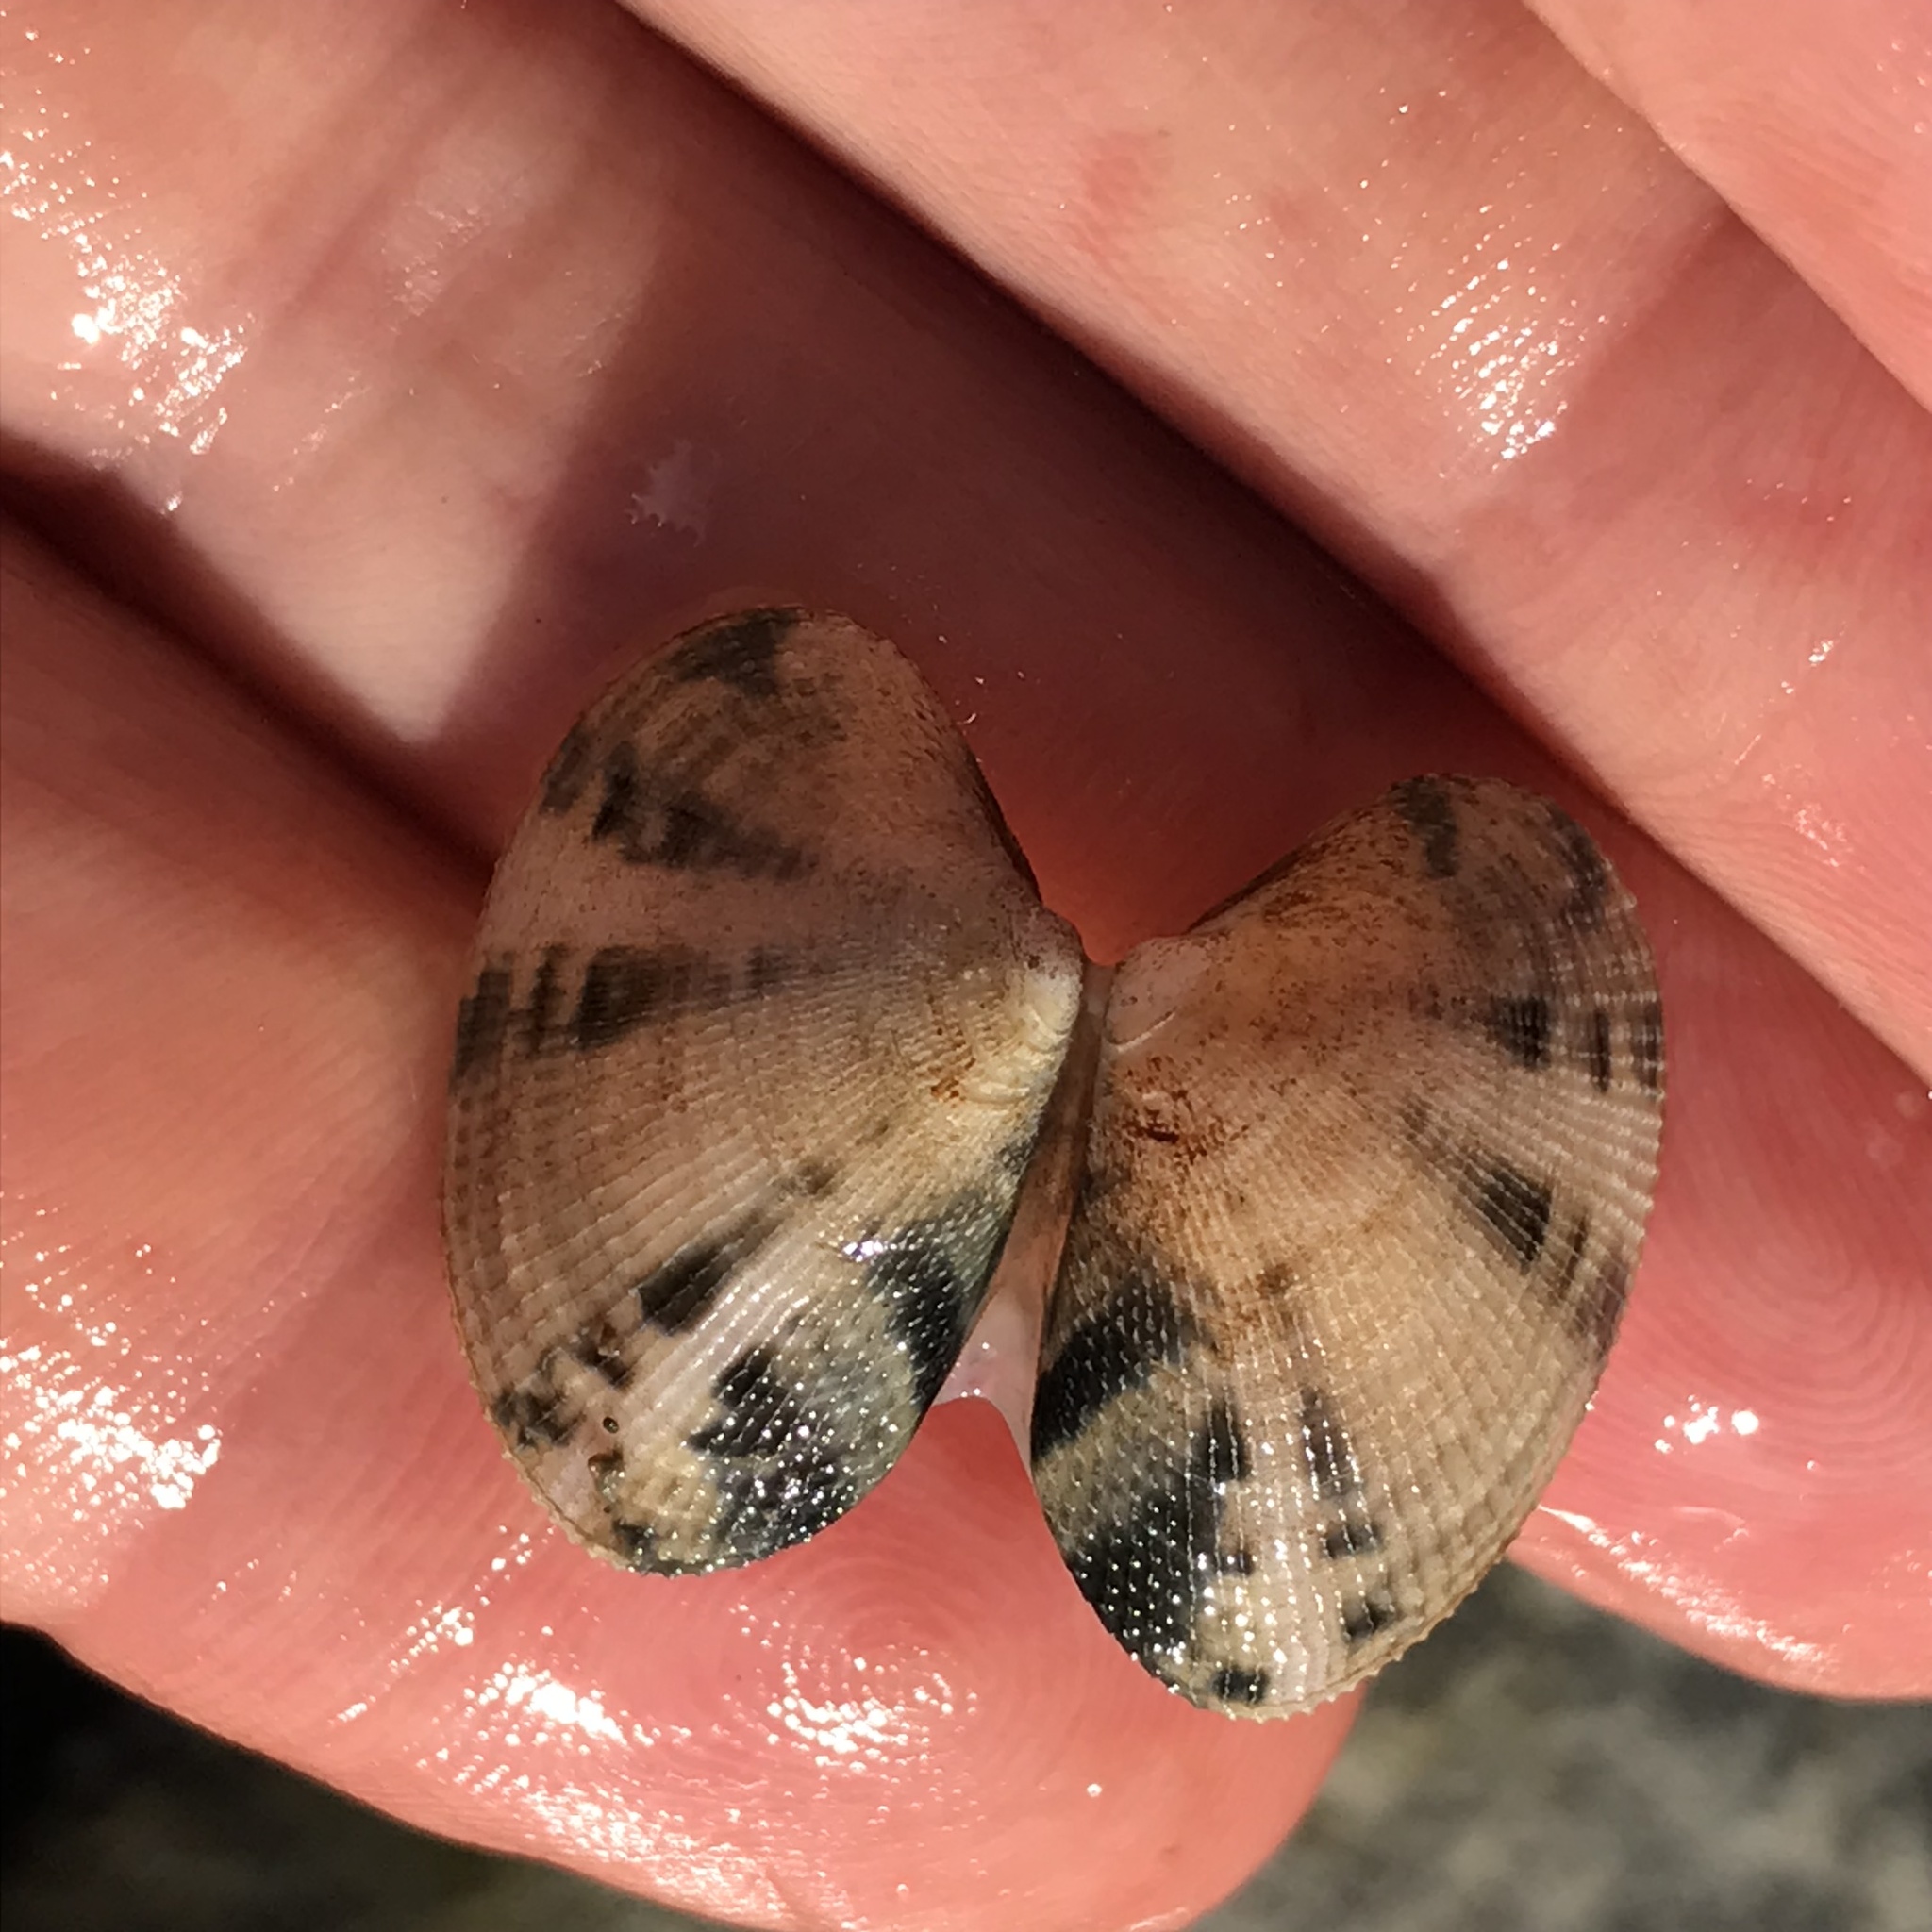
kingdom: Animalia
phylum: Mollusca
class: Bivalvia
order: Venerida
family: Veneridae
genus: Ruditapes
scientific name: Ruditapes philippinarum
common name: Manila clam
